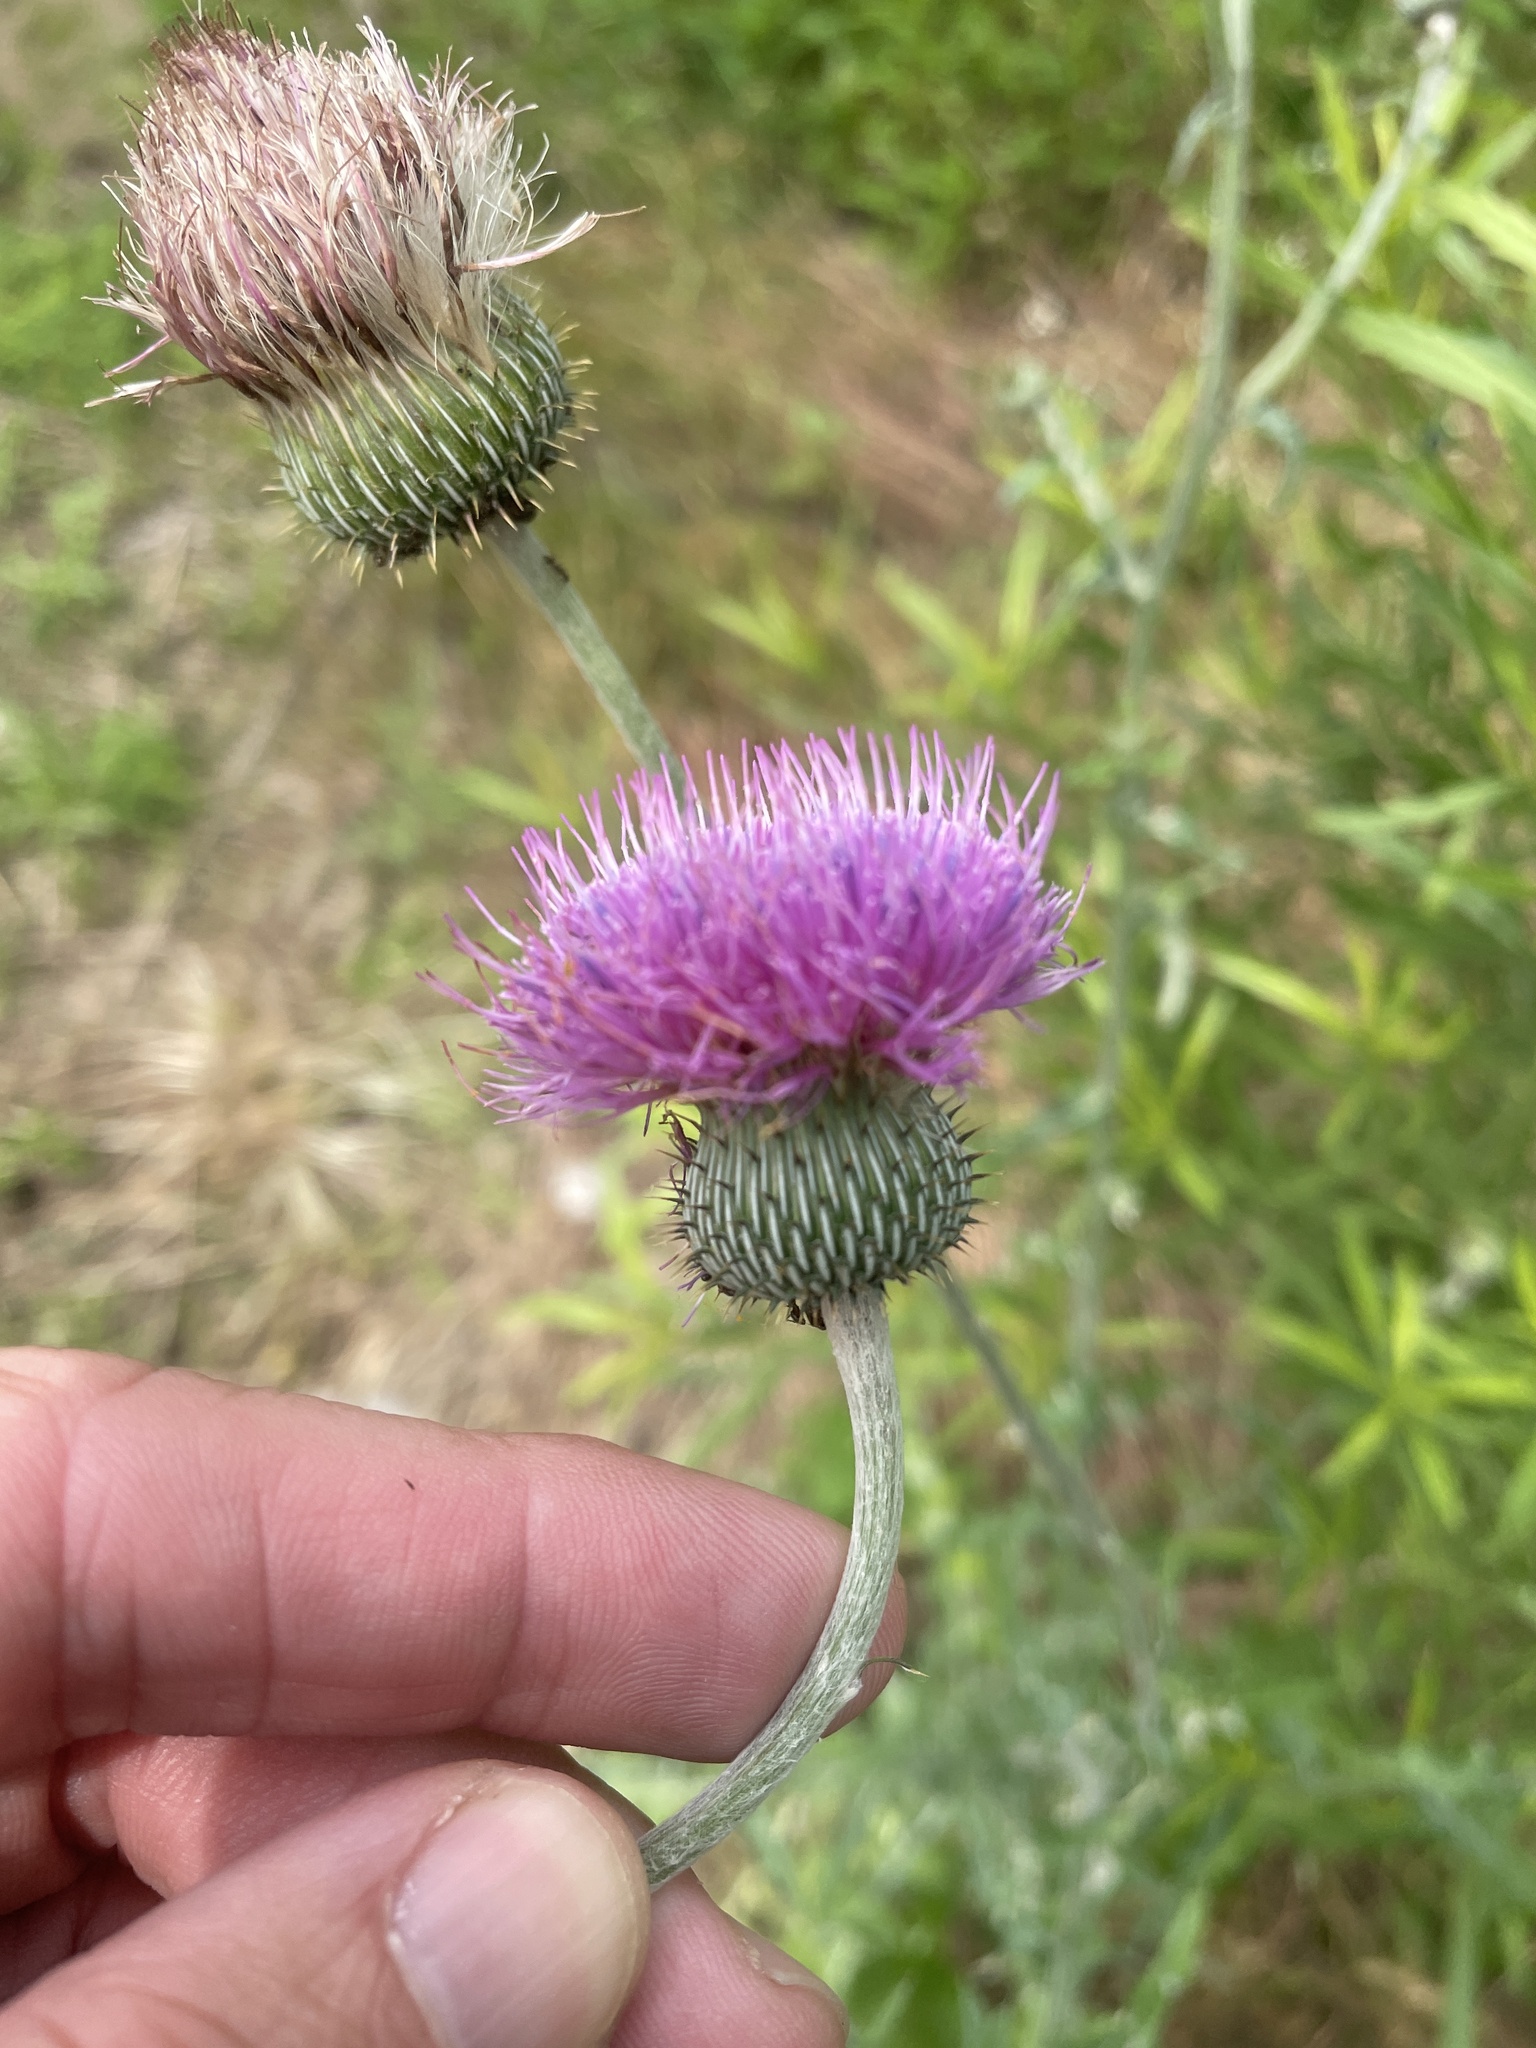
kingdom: Plantae
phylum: Tracheophyta
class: Magnoliopsida
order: Asterales
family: Asteraceae
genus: Cirsium
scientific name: Cirsium texanum
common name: Texas purple thistle
